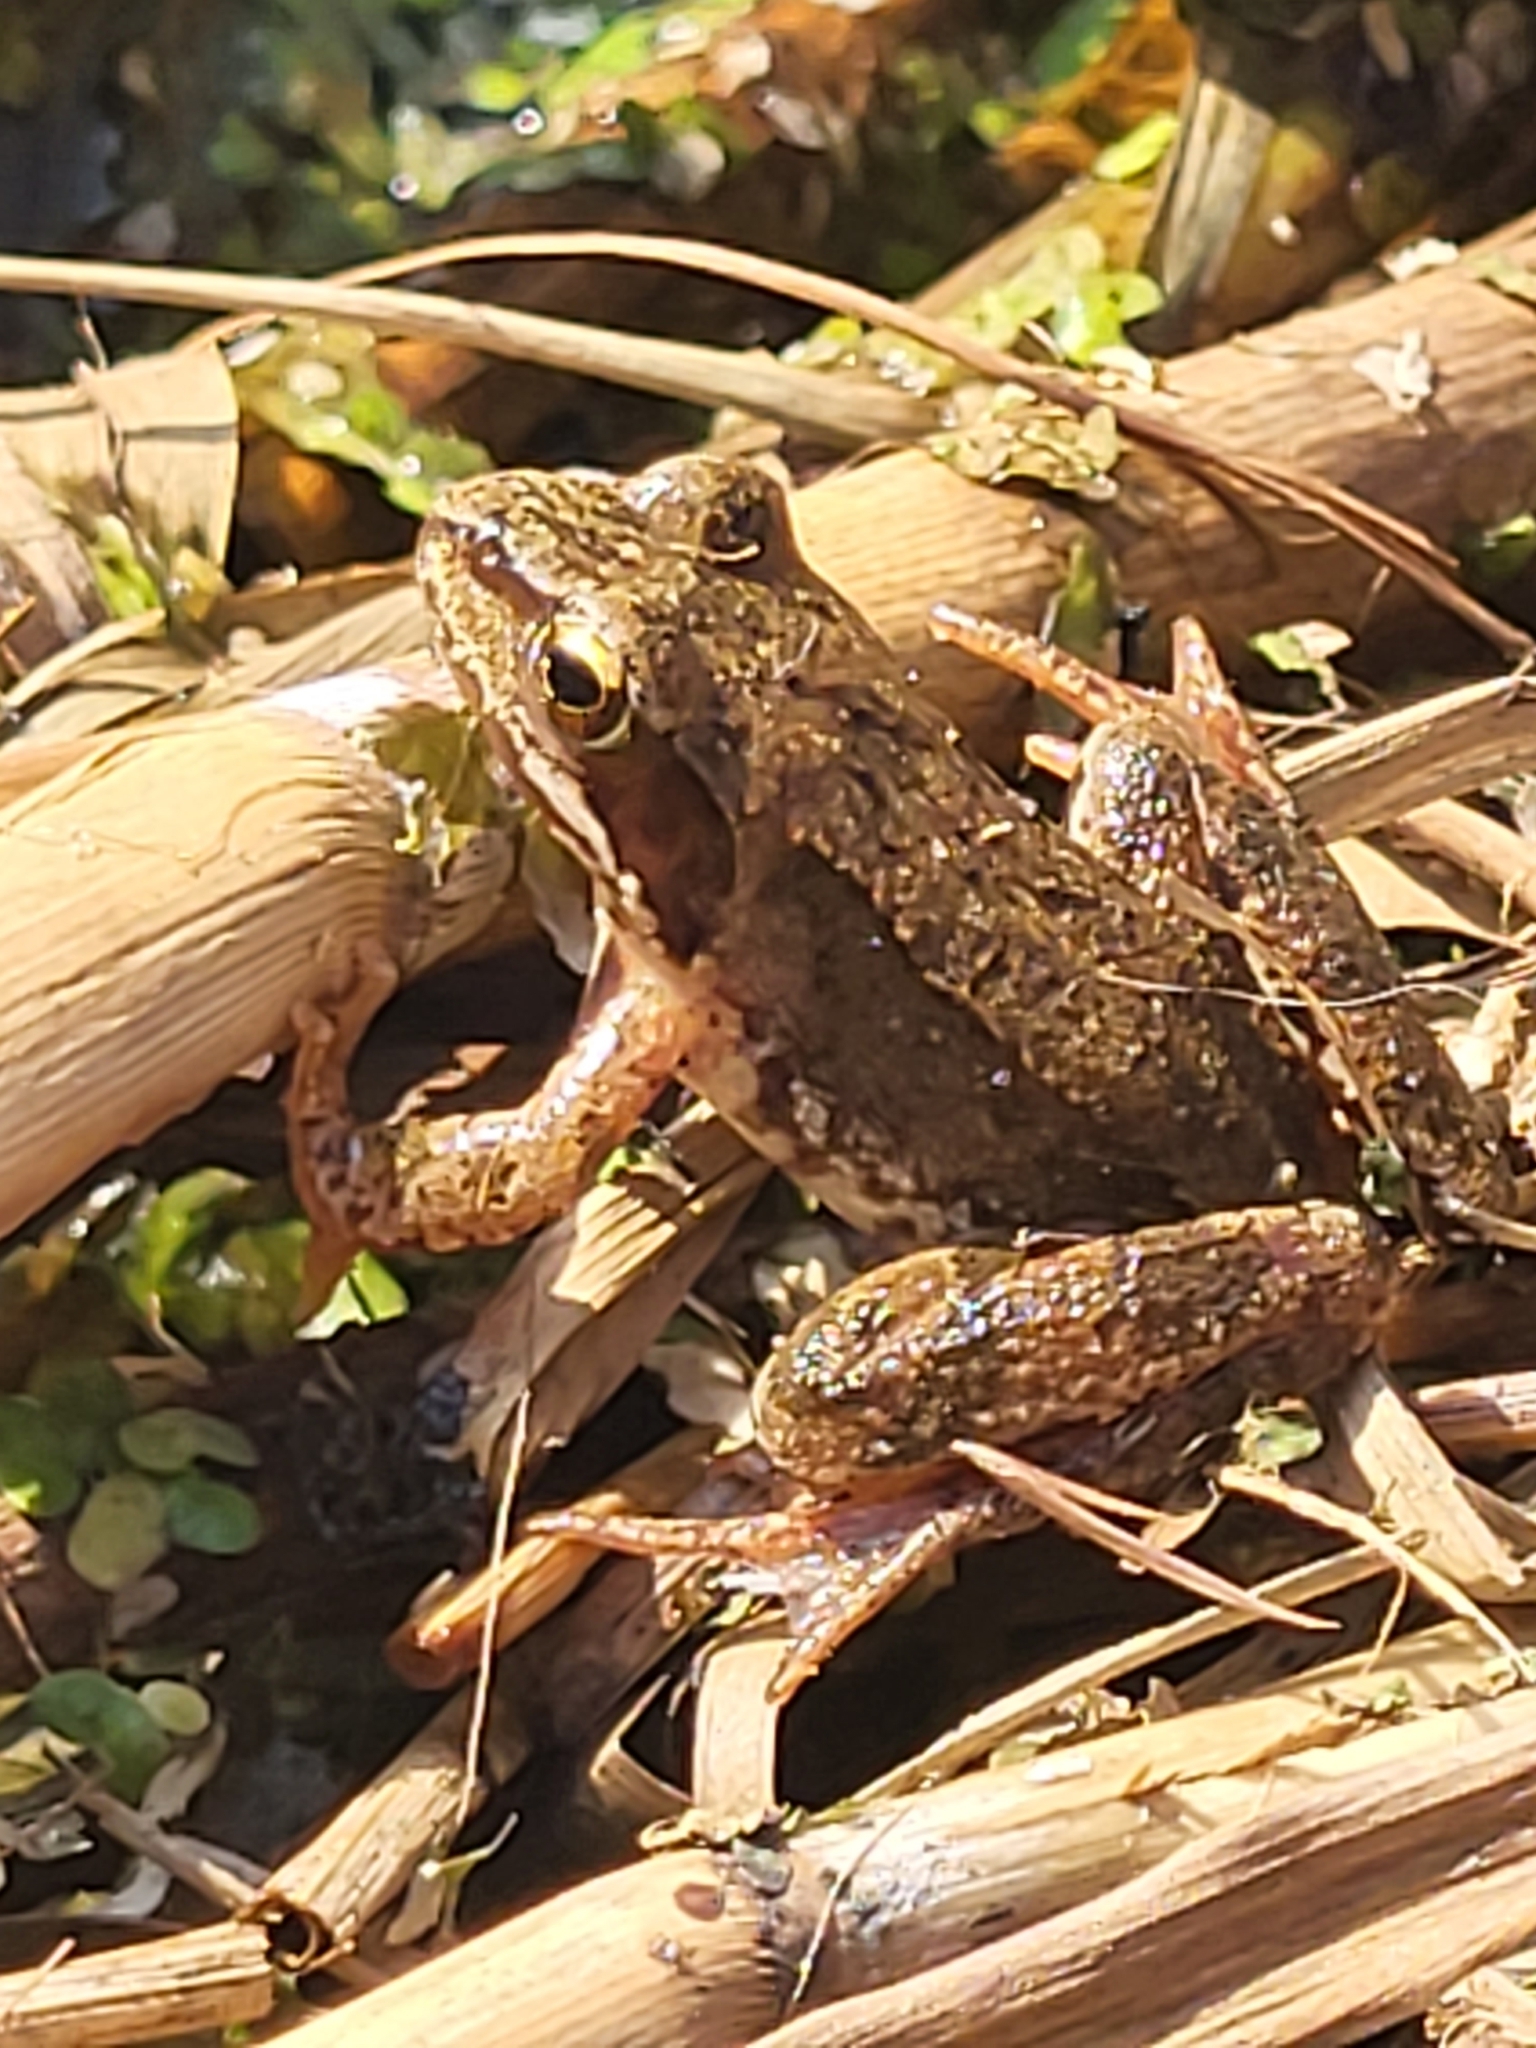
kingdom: Animalia
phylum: Chordata
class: Amphibia
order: Anura
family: Ranidae
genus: Rana
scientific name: Rana temporaria
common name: Common frog
